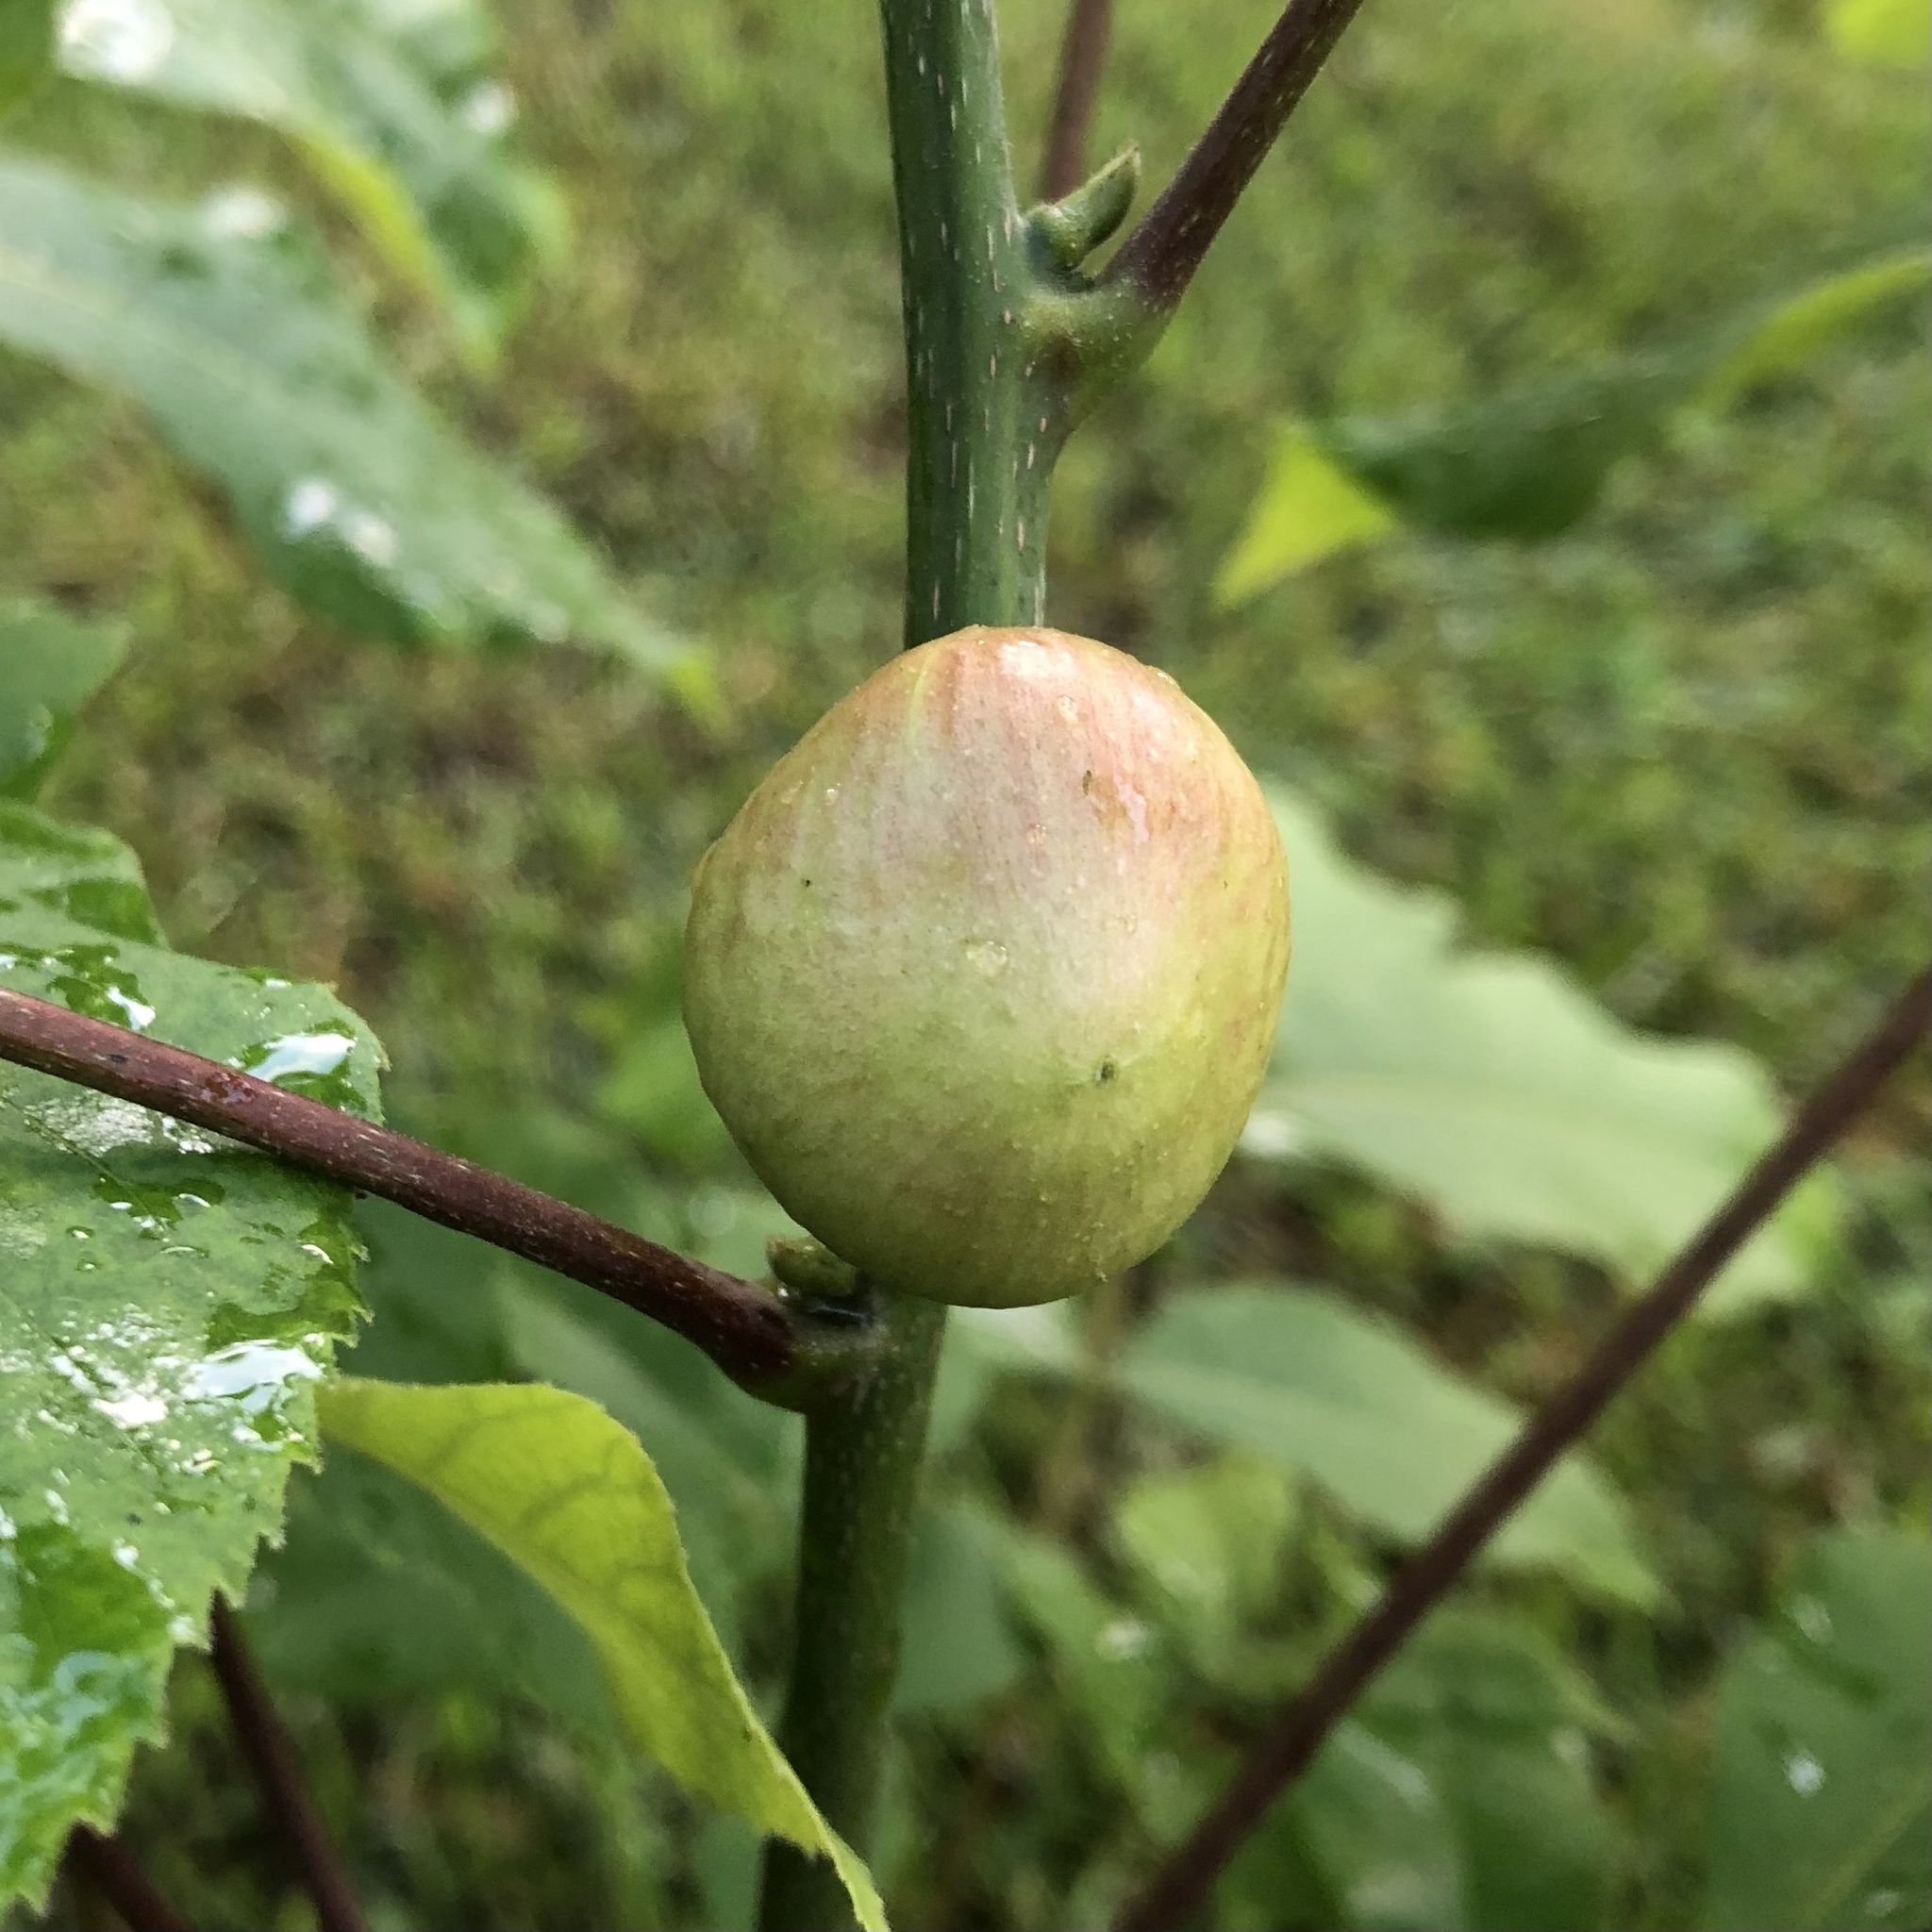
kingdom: Animalia
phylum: Arthropoda
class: Insecta
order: Hemiptera
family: Phylloxeridae
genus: Phylloxera
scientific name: Phylloxera caryaecaulis
